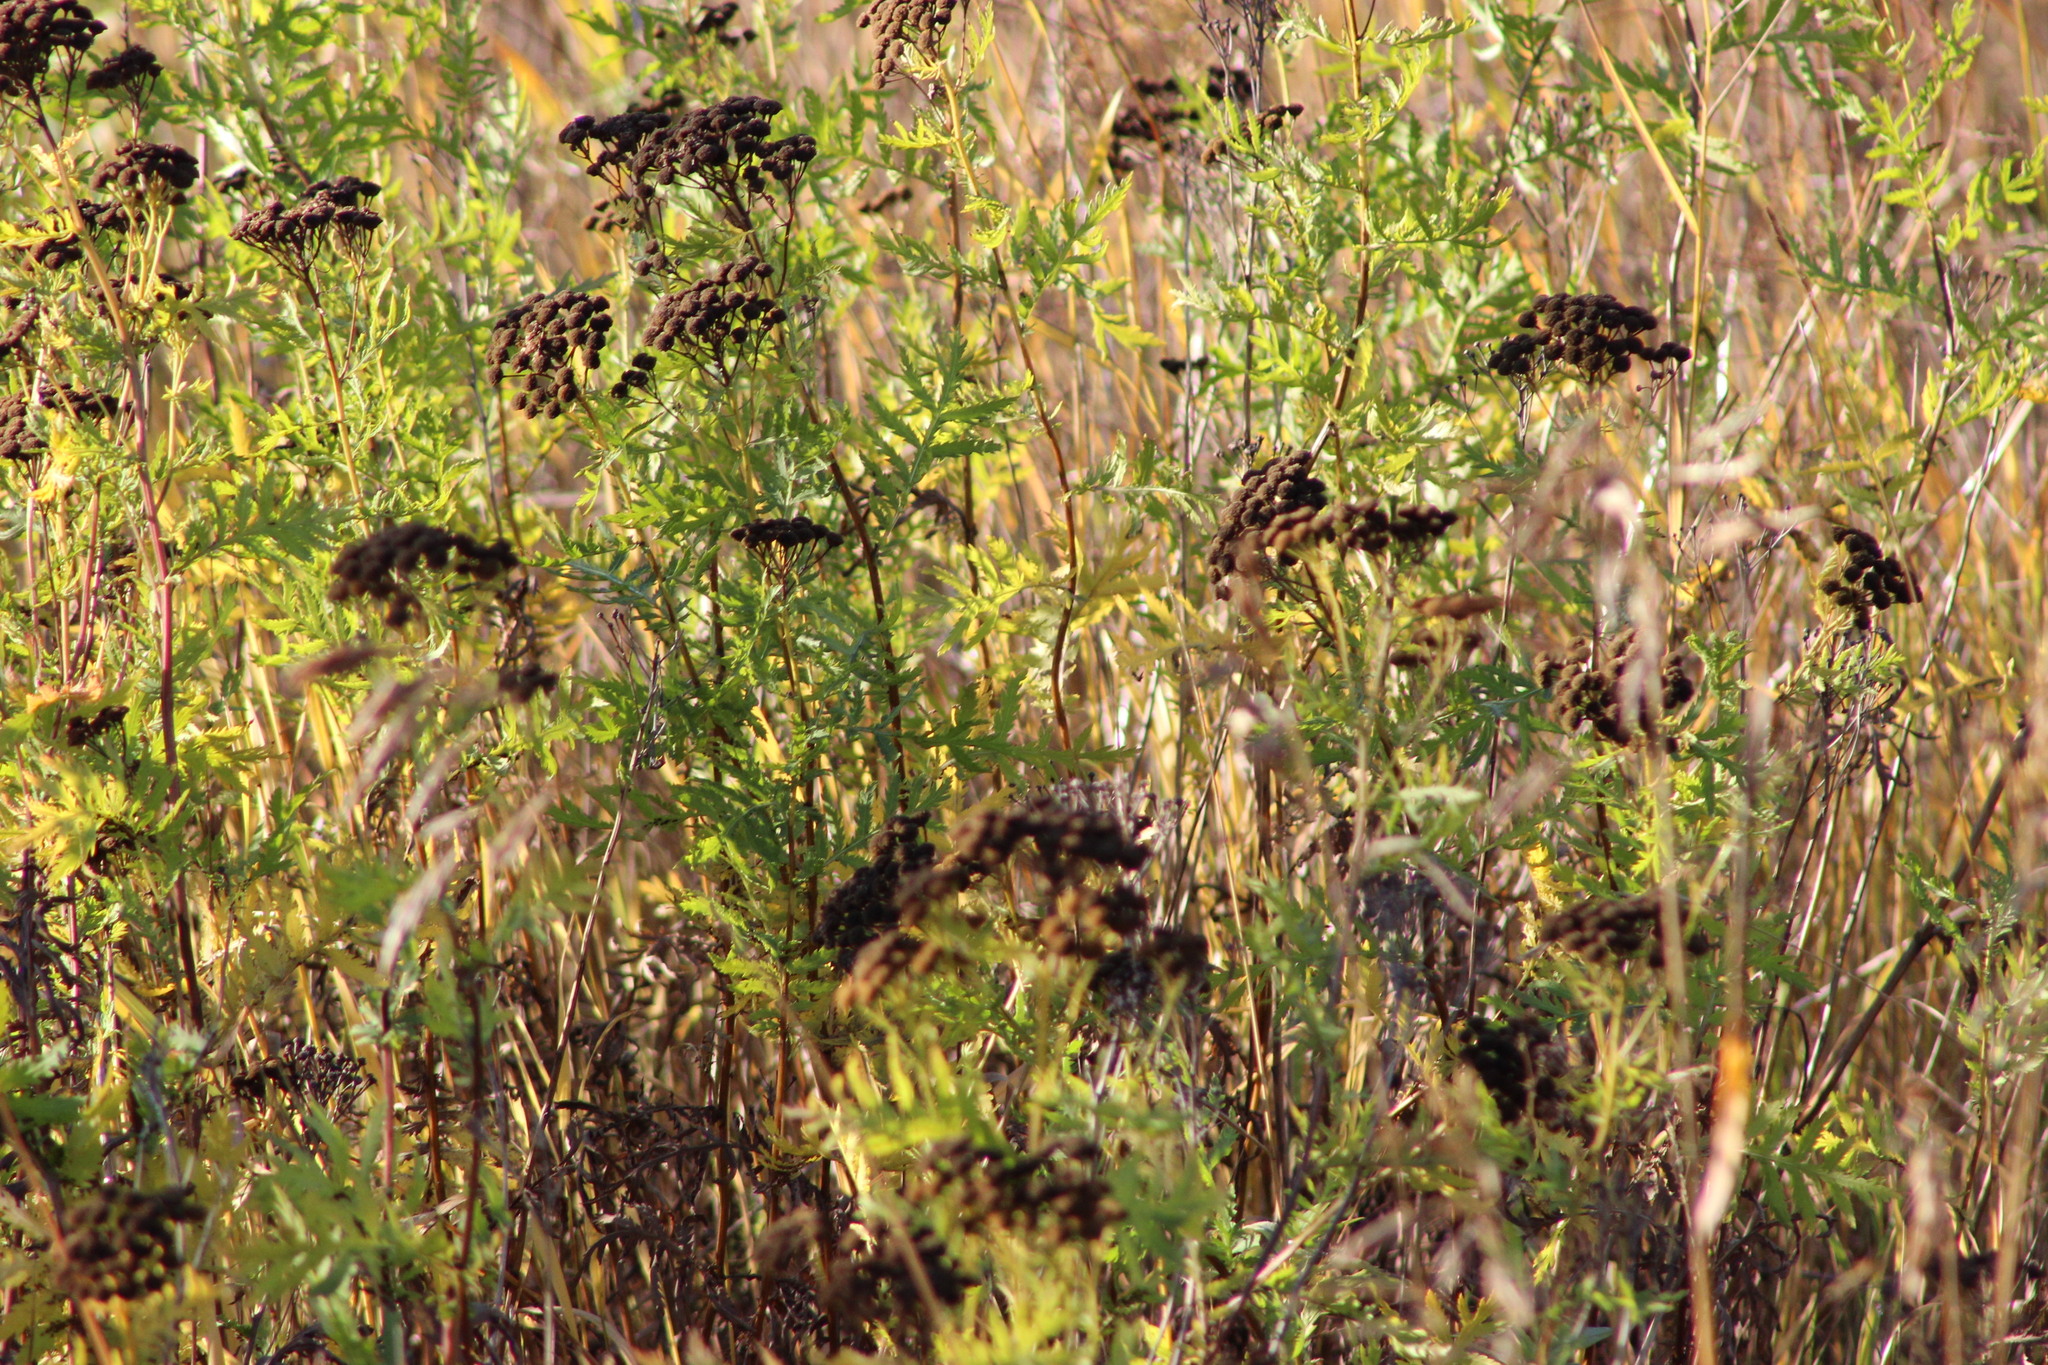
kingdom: Plantae
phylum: Tracheophyta
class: Magnoliopsida
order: Asterales
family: Asteraceae
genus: Tanacetum
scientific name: Tanacetum vulgare
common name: Common tansy
